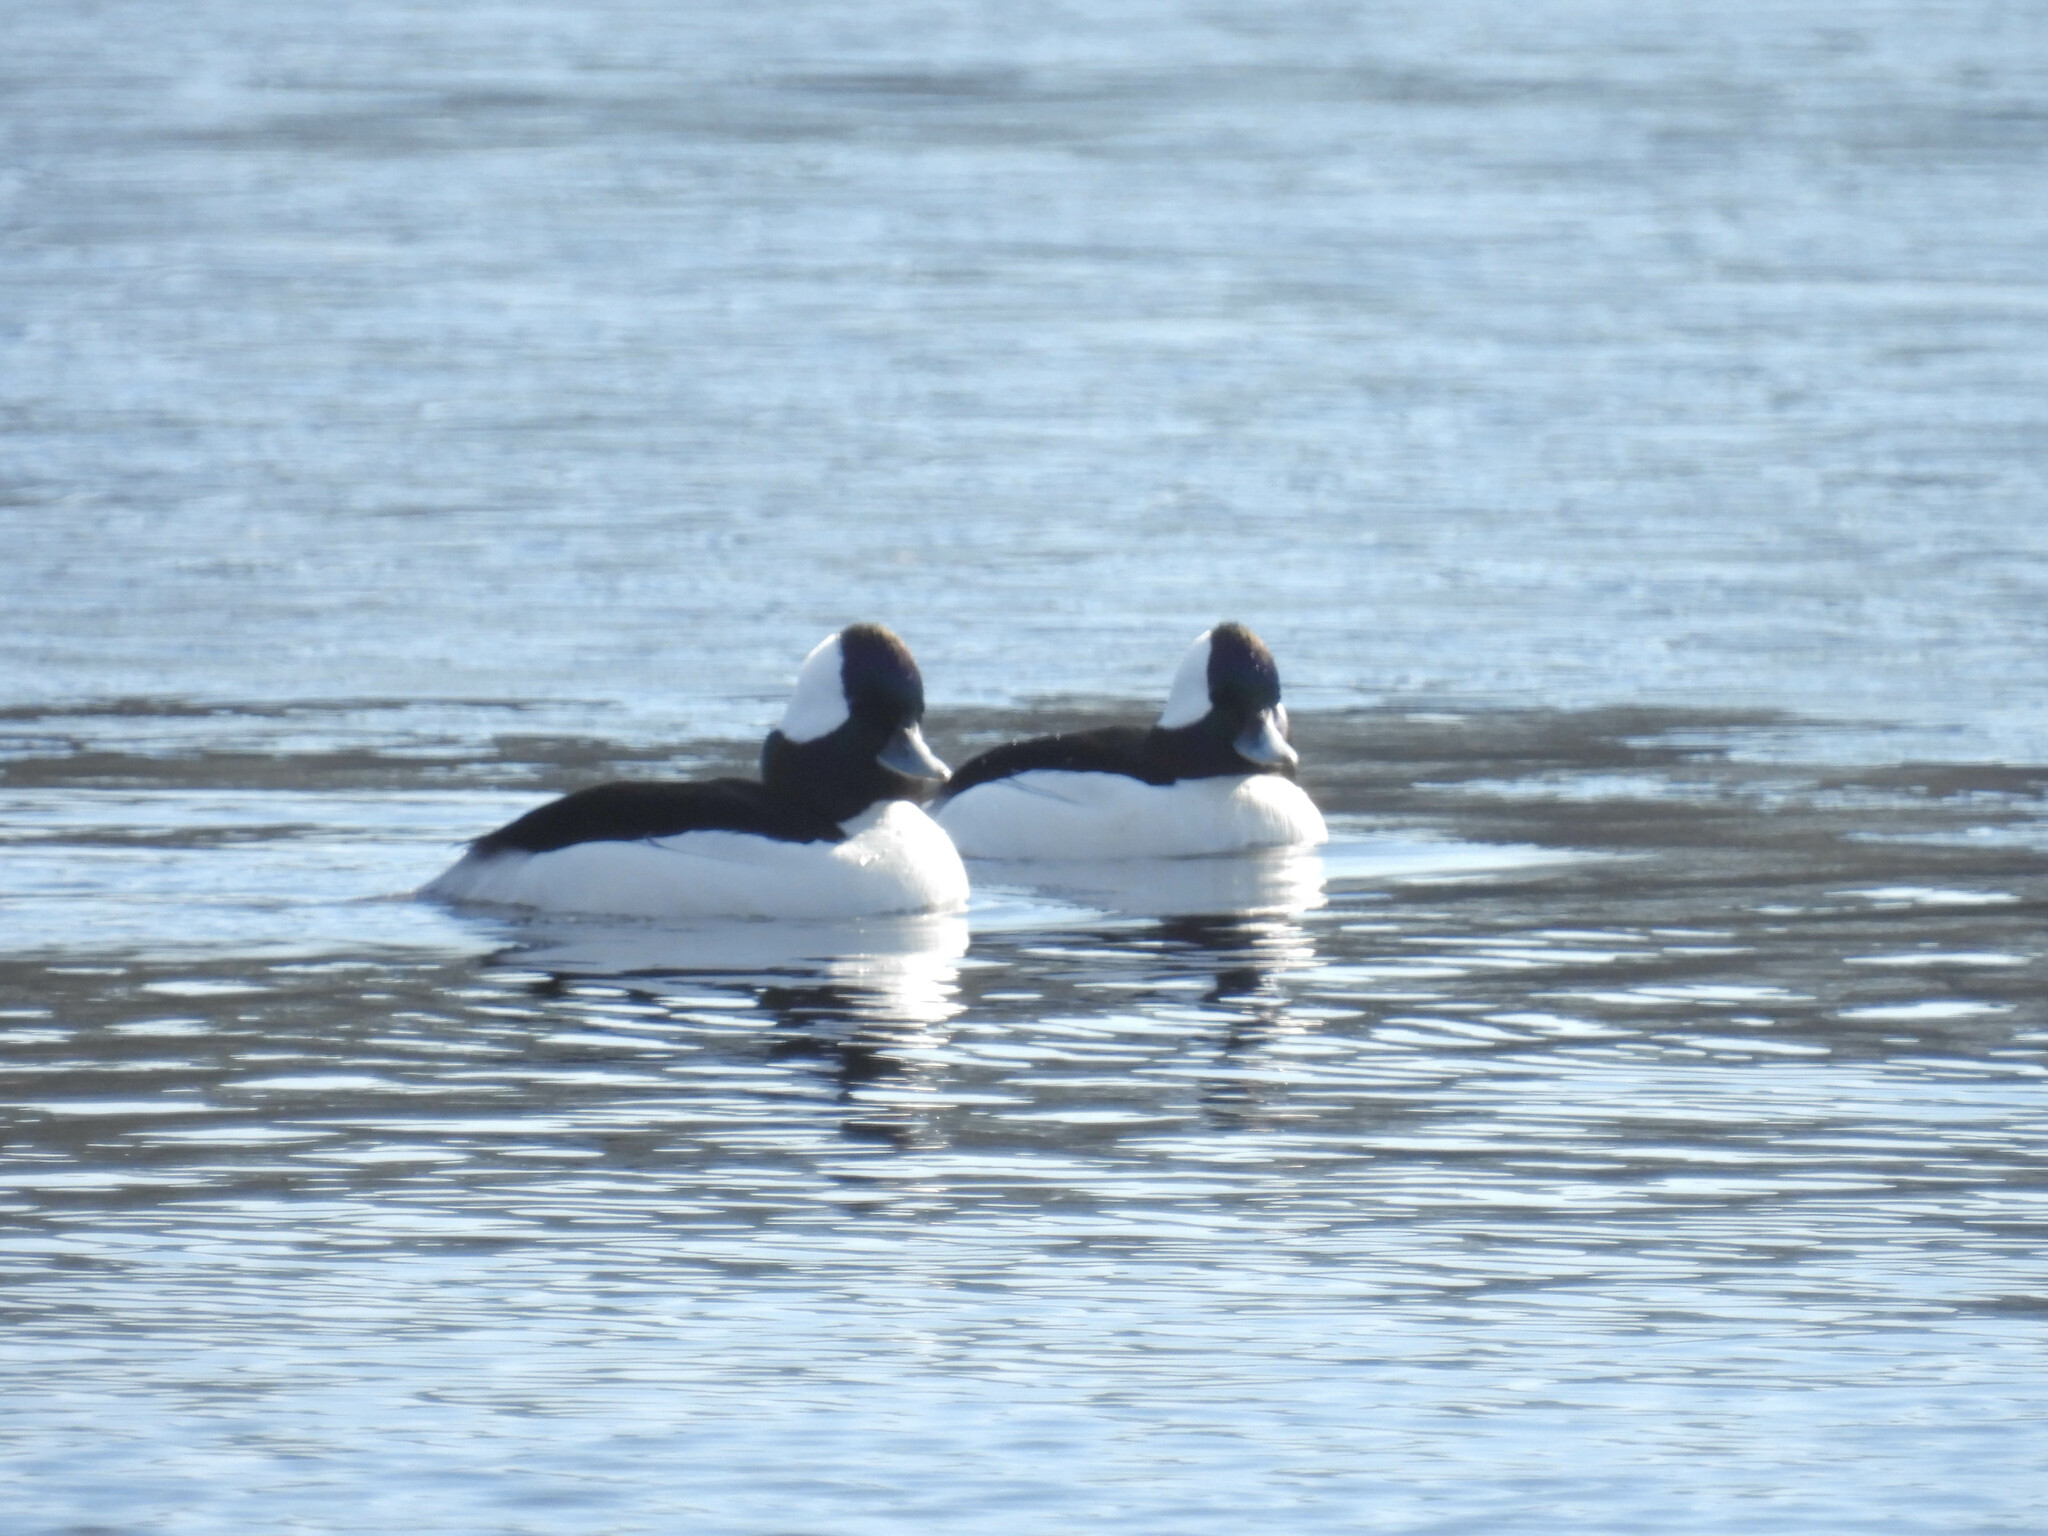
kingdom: Animalia
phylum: Chordata
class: Aves
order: Anseriformes
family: Anatidae
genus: Bucephala
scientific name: Bucephala albeola
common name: Bufflehead
